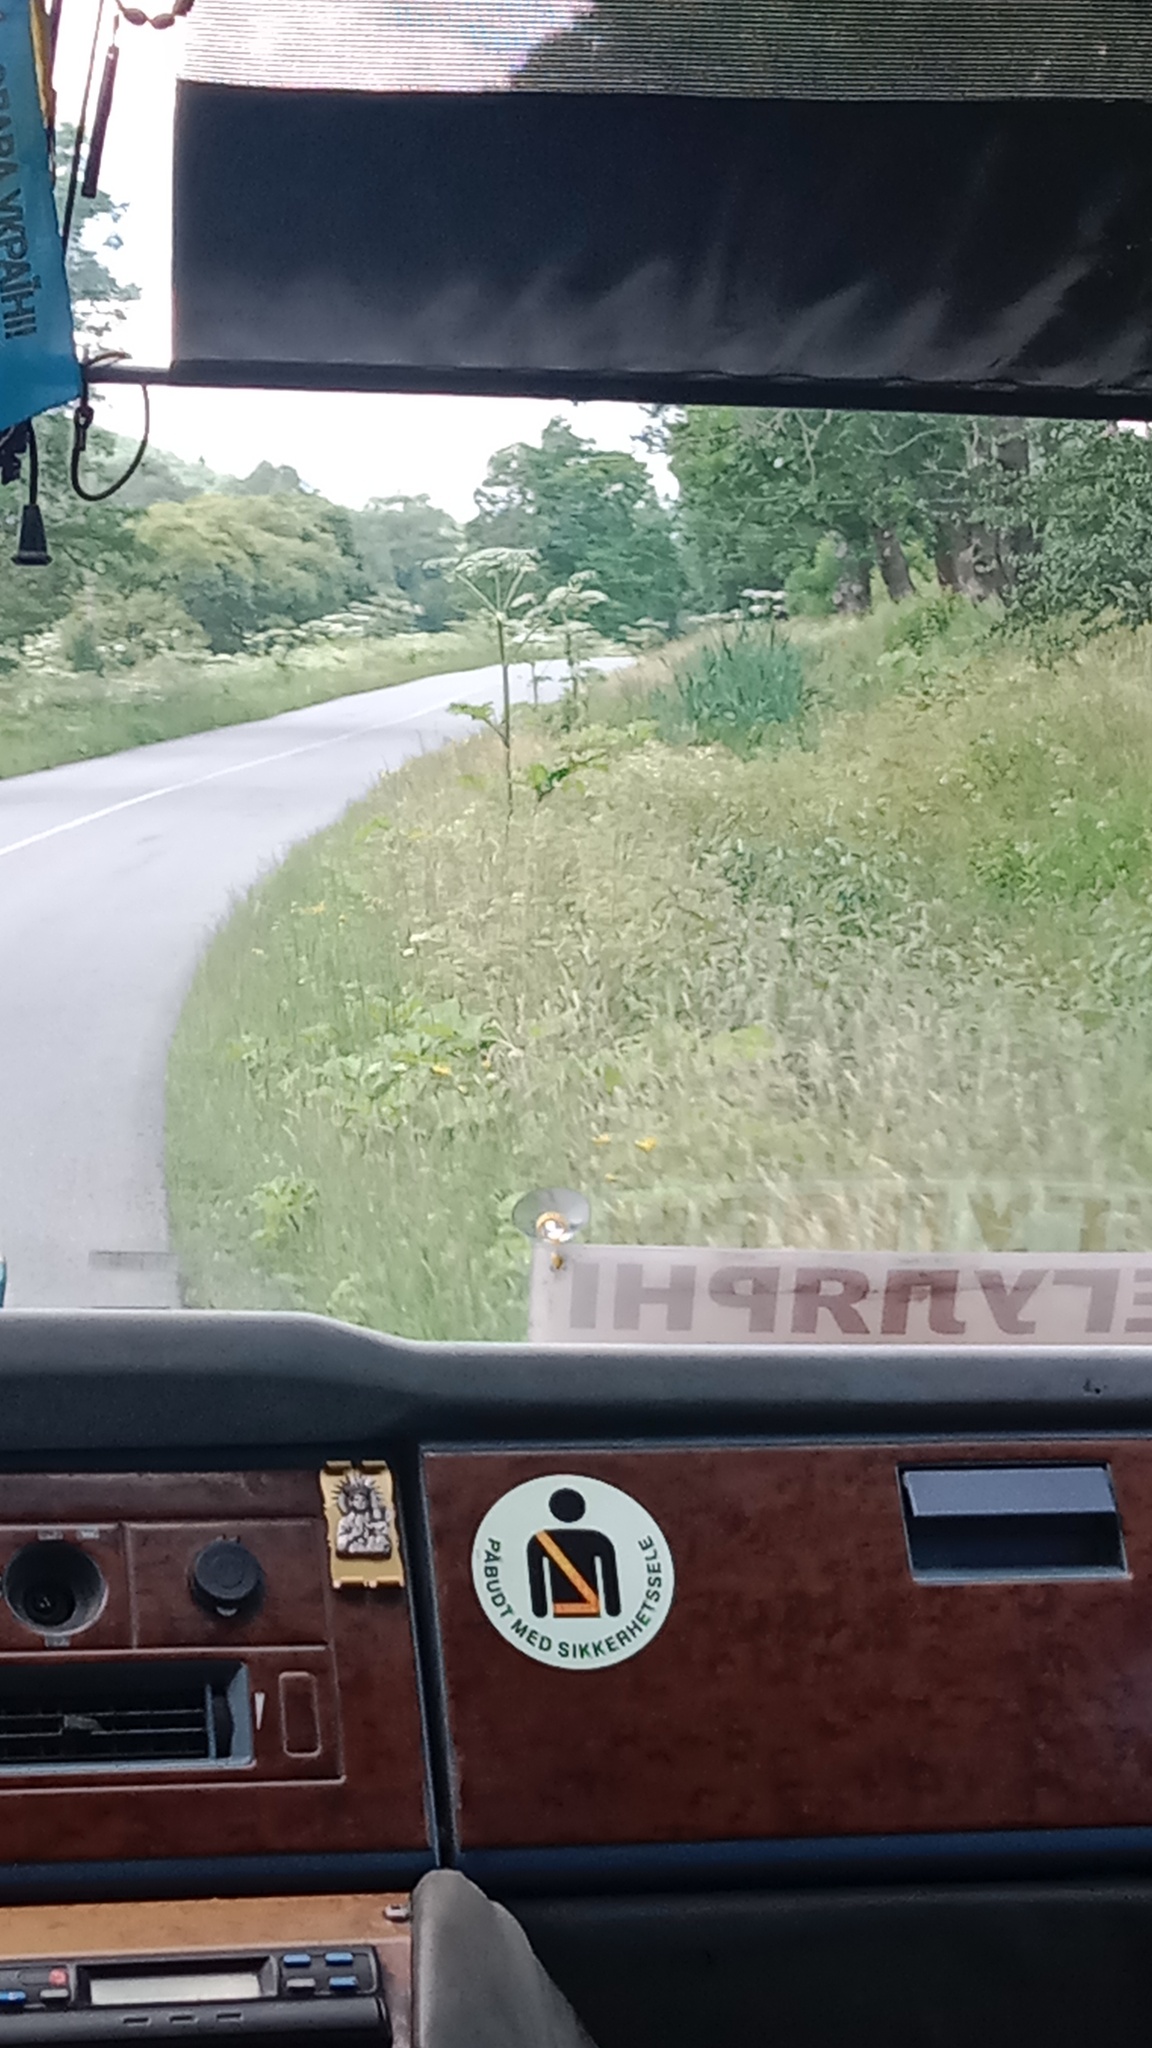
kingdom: Plantae
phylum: Tracheophyta
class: Magnoliopsida
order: Apiales
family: Apiaceae
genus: Heracleum
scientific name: Heracleum sosnowskyi
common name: Sosnowsky's hogweed
